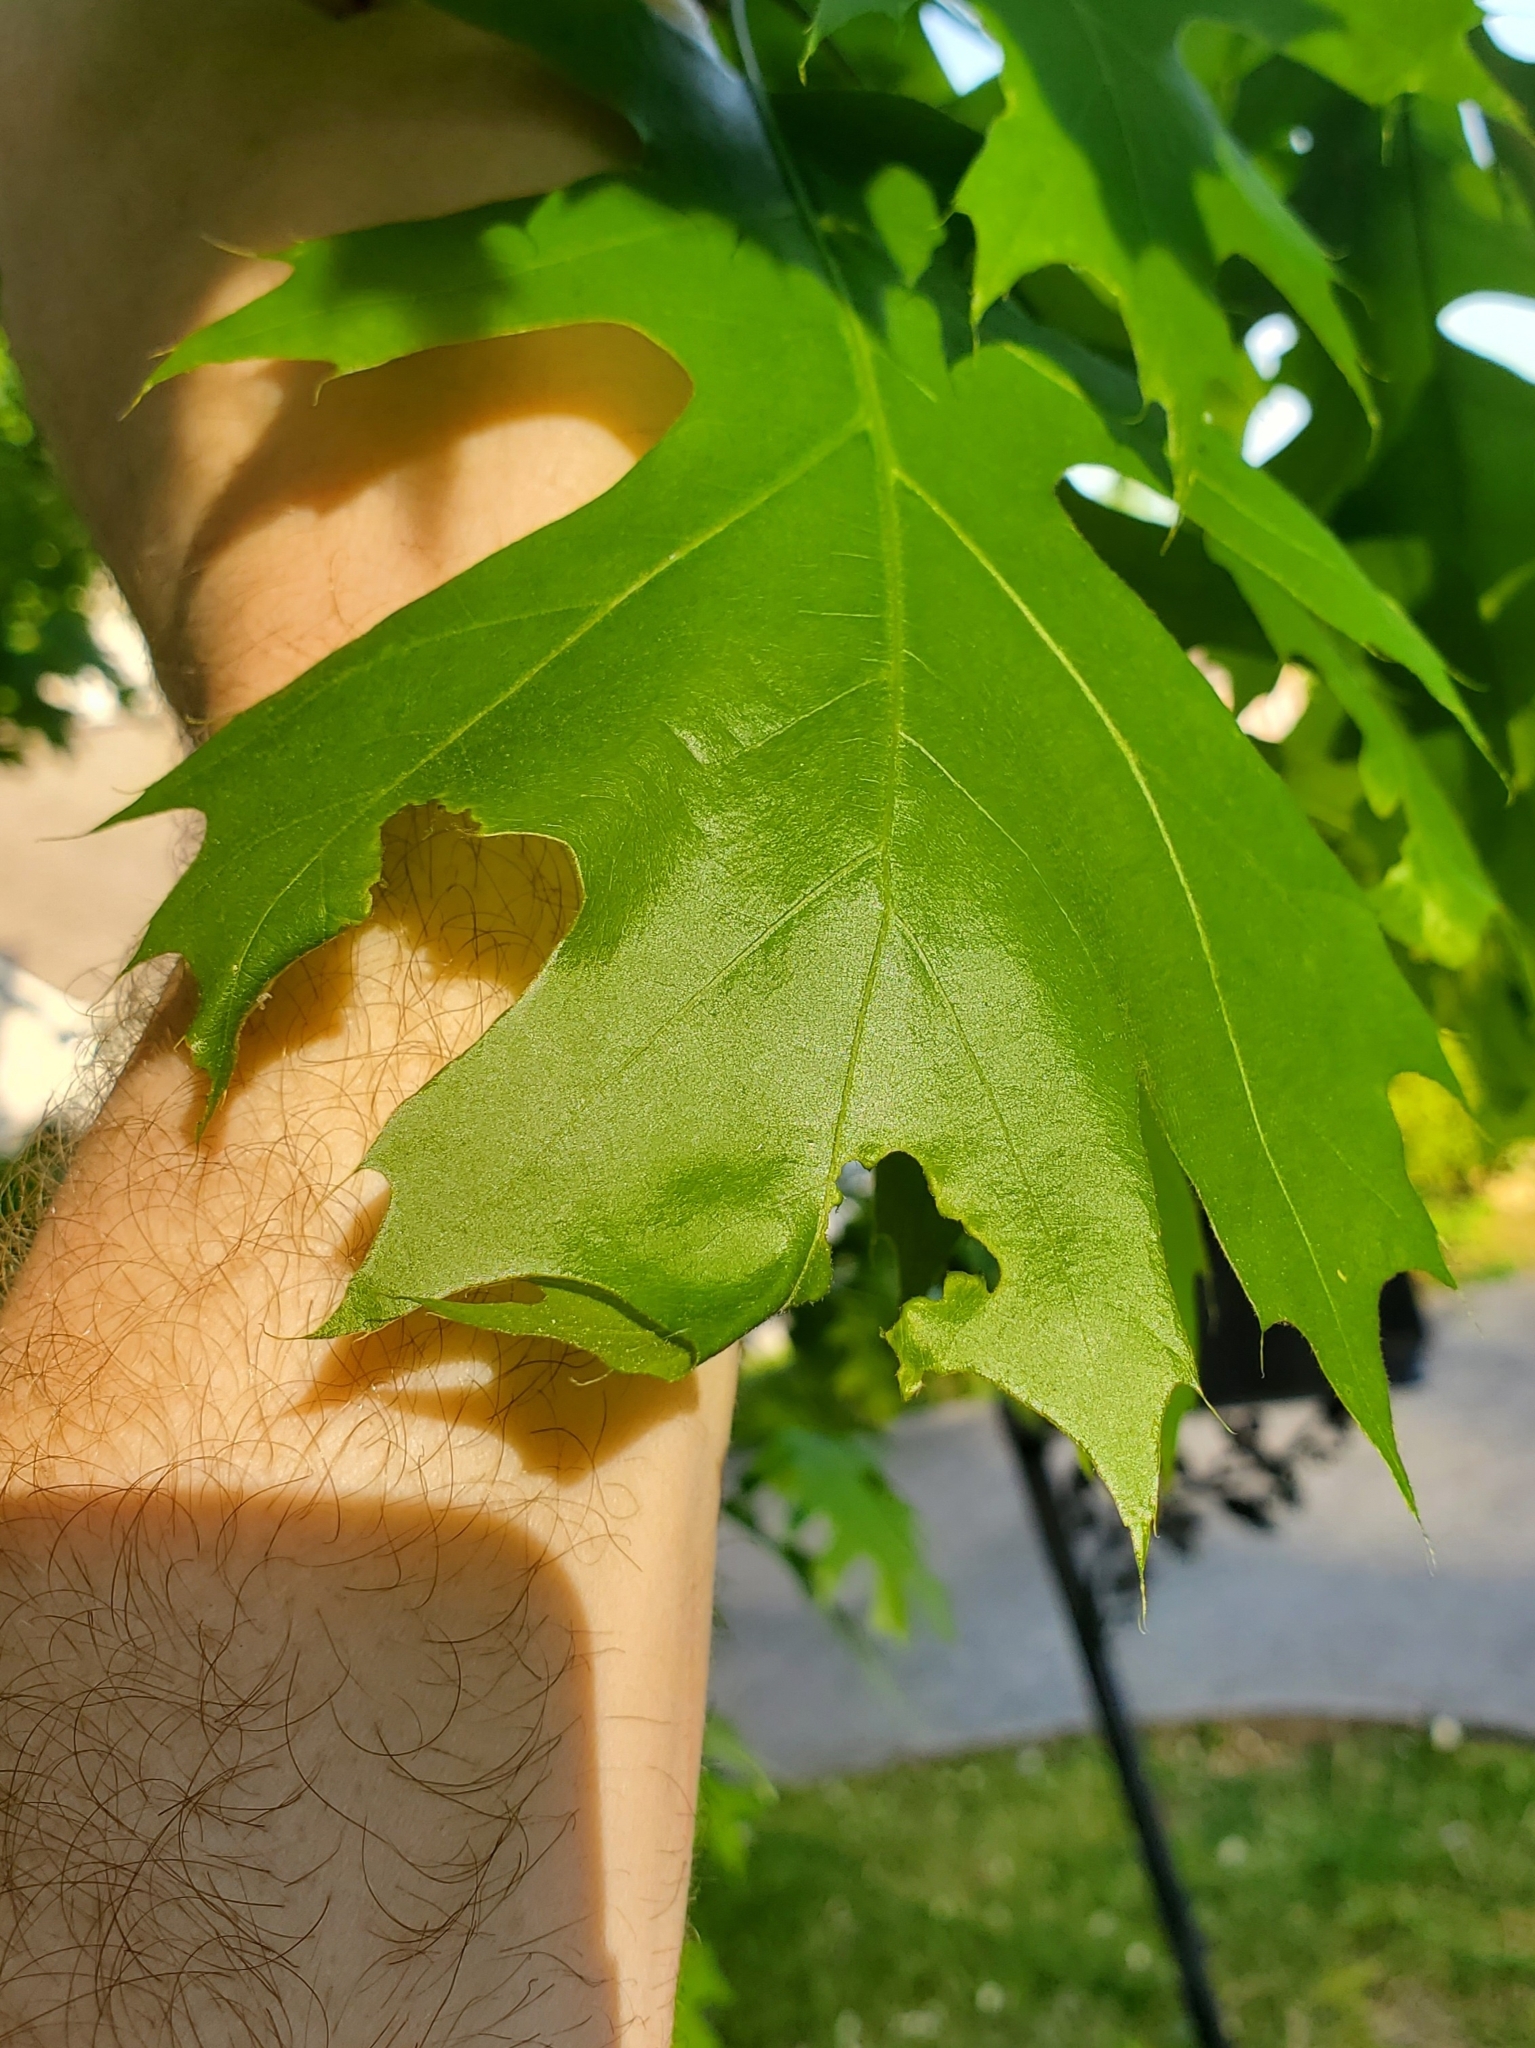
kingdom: Animalia
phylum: Arthropoda
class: Insecta
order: Diptera
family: Cecidomyiidae
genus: Macrodiplosis
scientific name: Macrodiplosis niveipila
